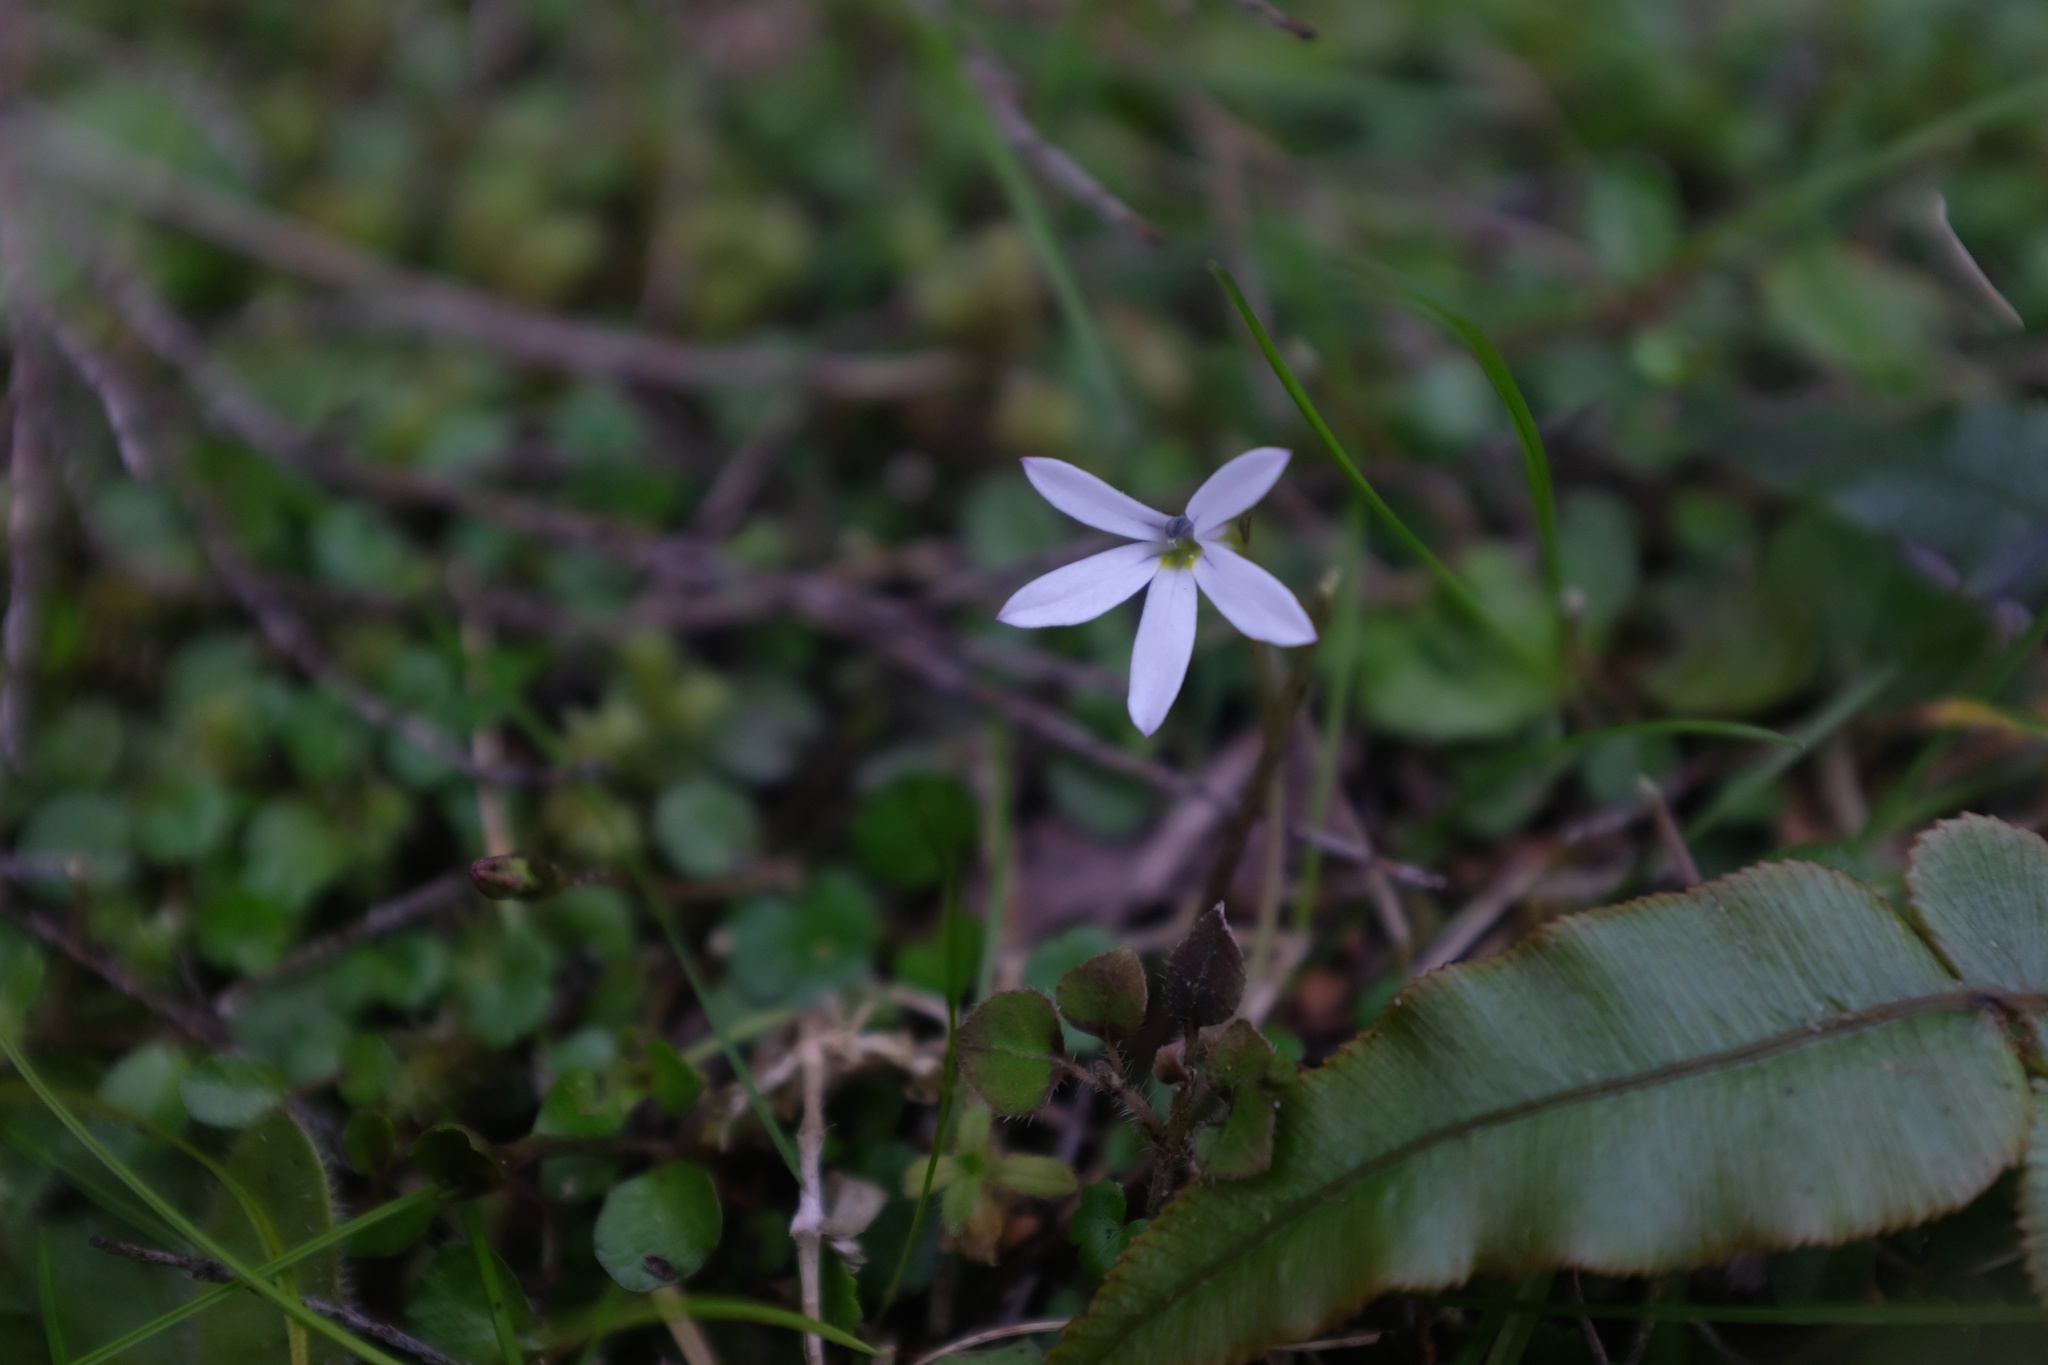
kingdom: Plantae
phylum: Tracheophyta
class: Magnoliopsida
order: Asterales
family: Campanulaceae
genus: Lobelia
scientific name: Lobelia angulata
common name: Lawn lobelia
